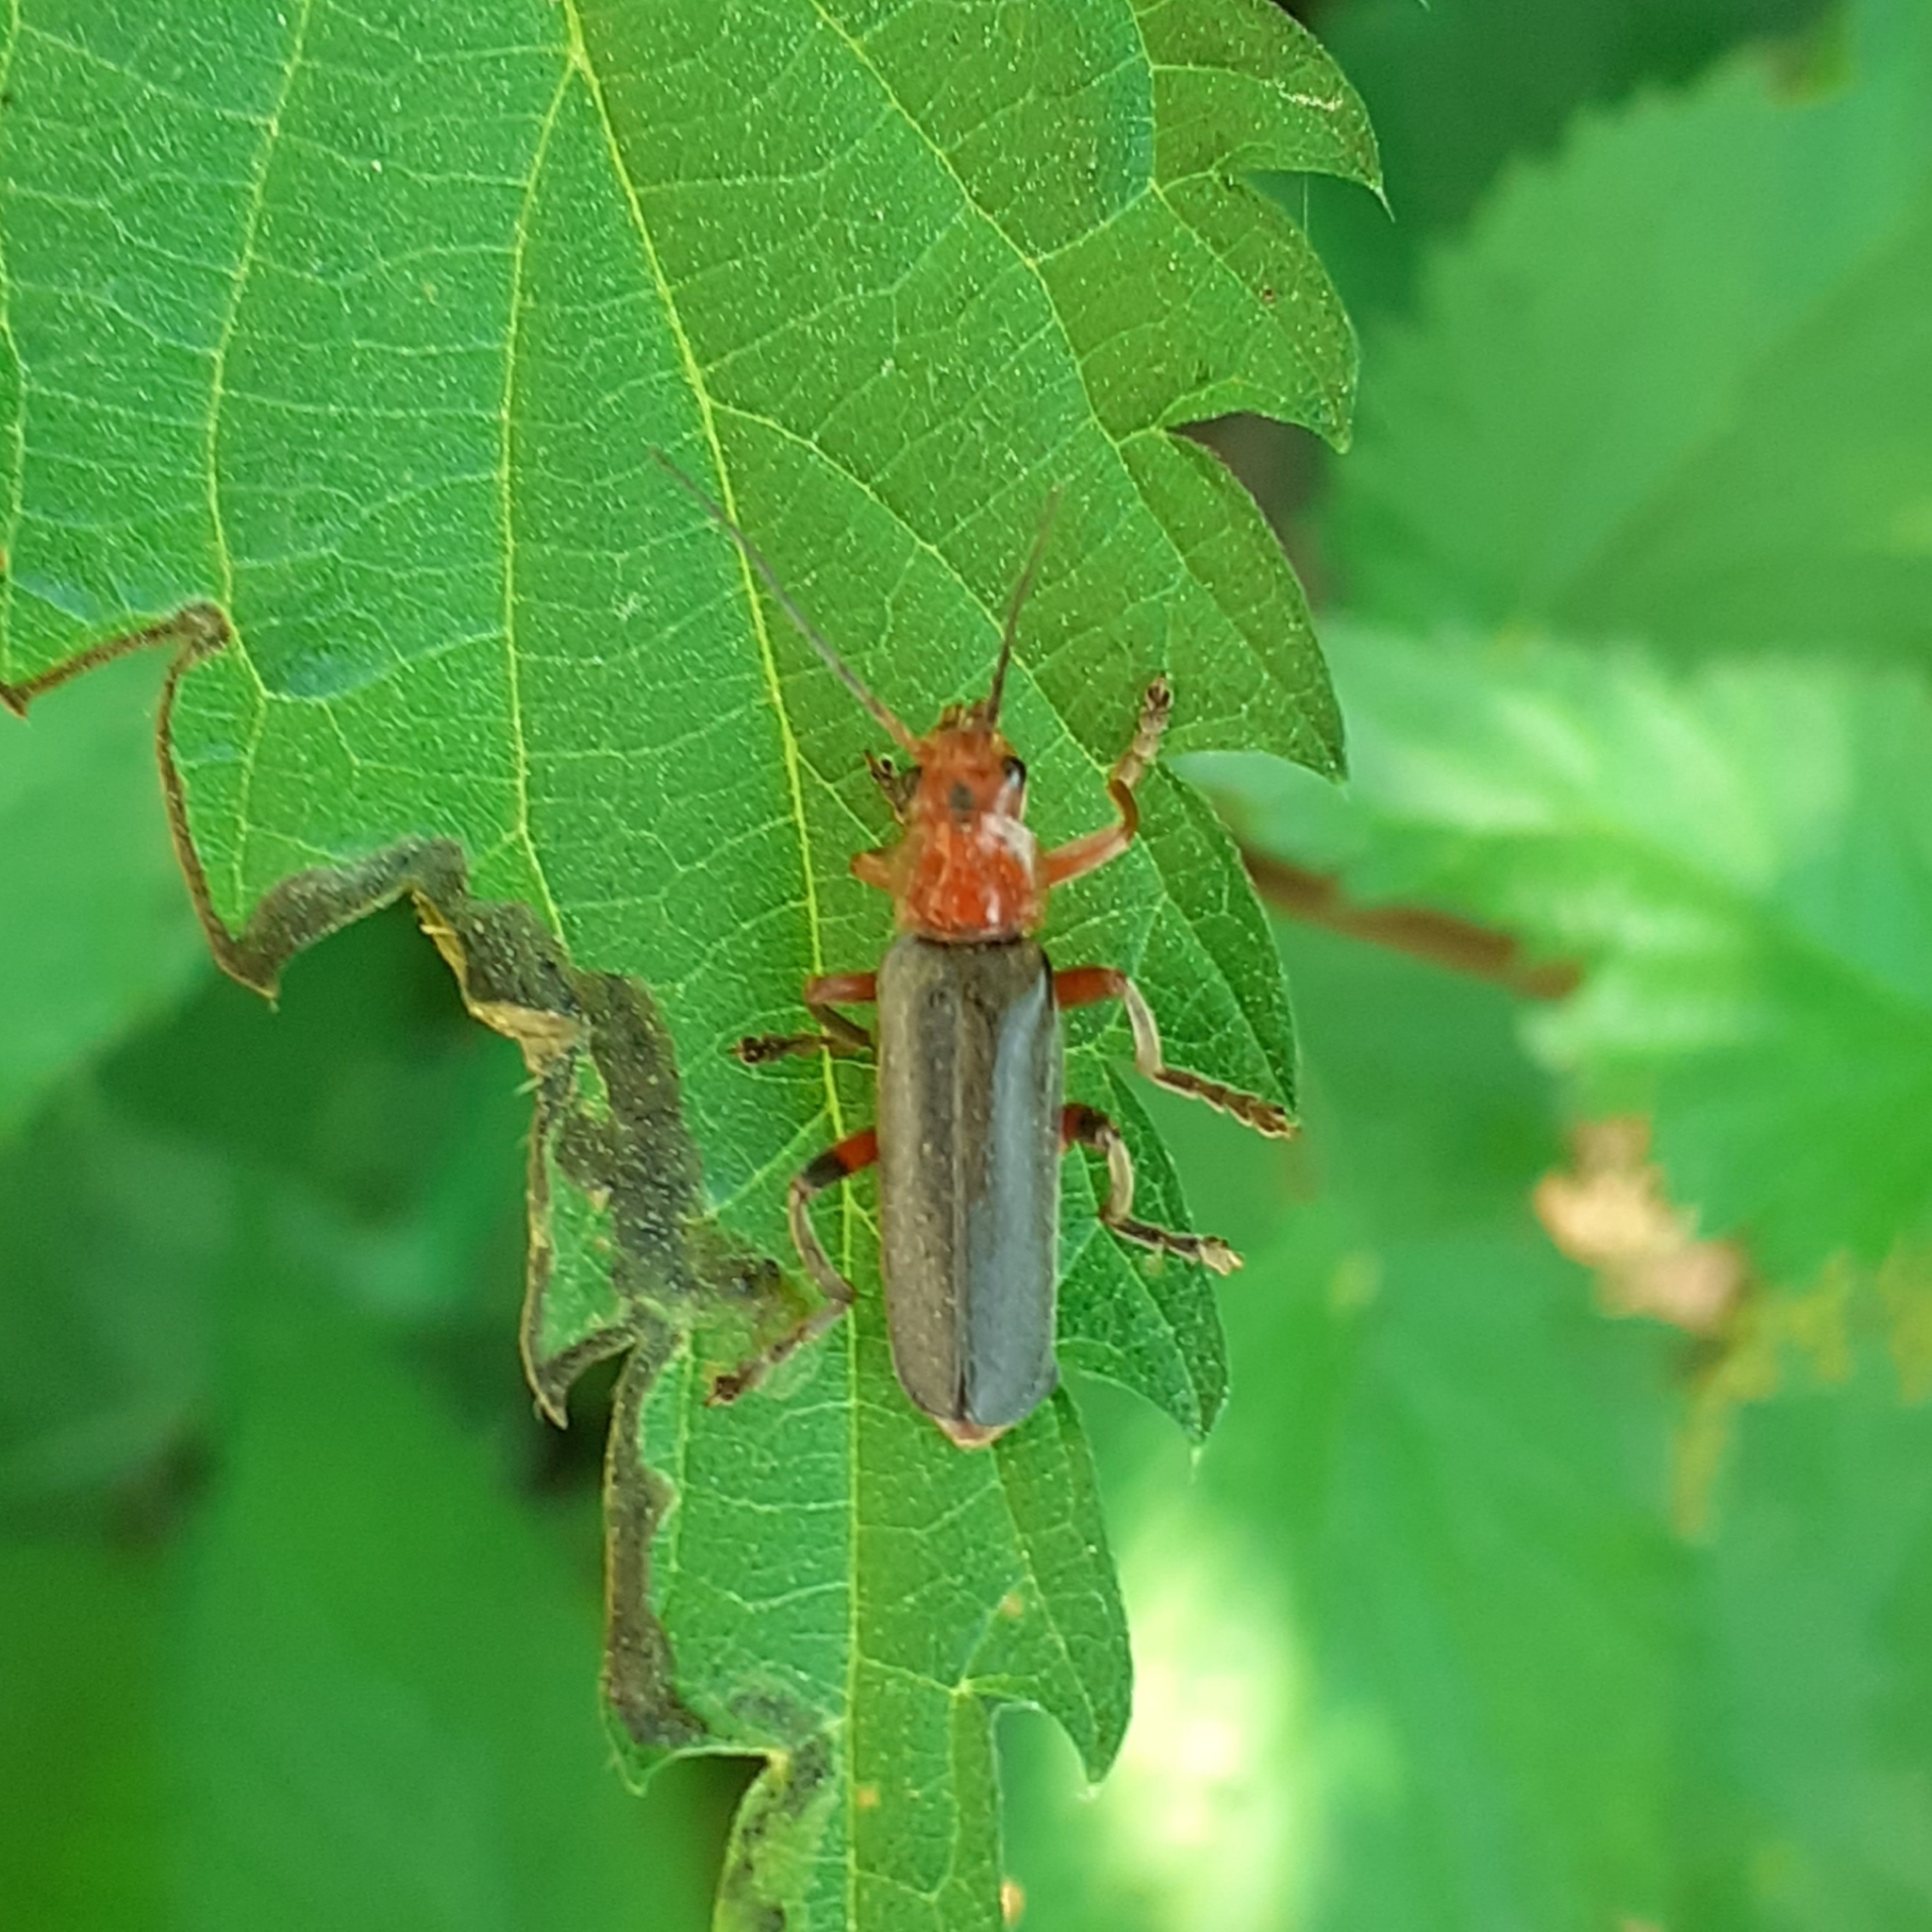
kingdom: Animalia
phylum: Arthropoda
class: Insecta
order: Coleoptera
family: Cantharidae
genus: Cantharis
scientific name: Cantharis livida
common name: Livid soldier beetle
